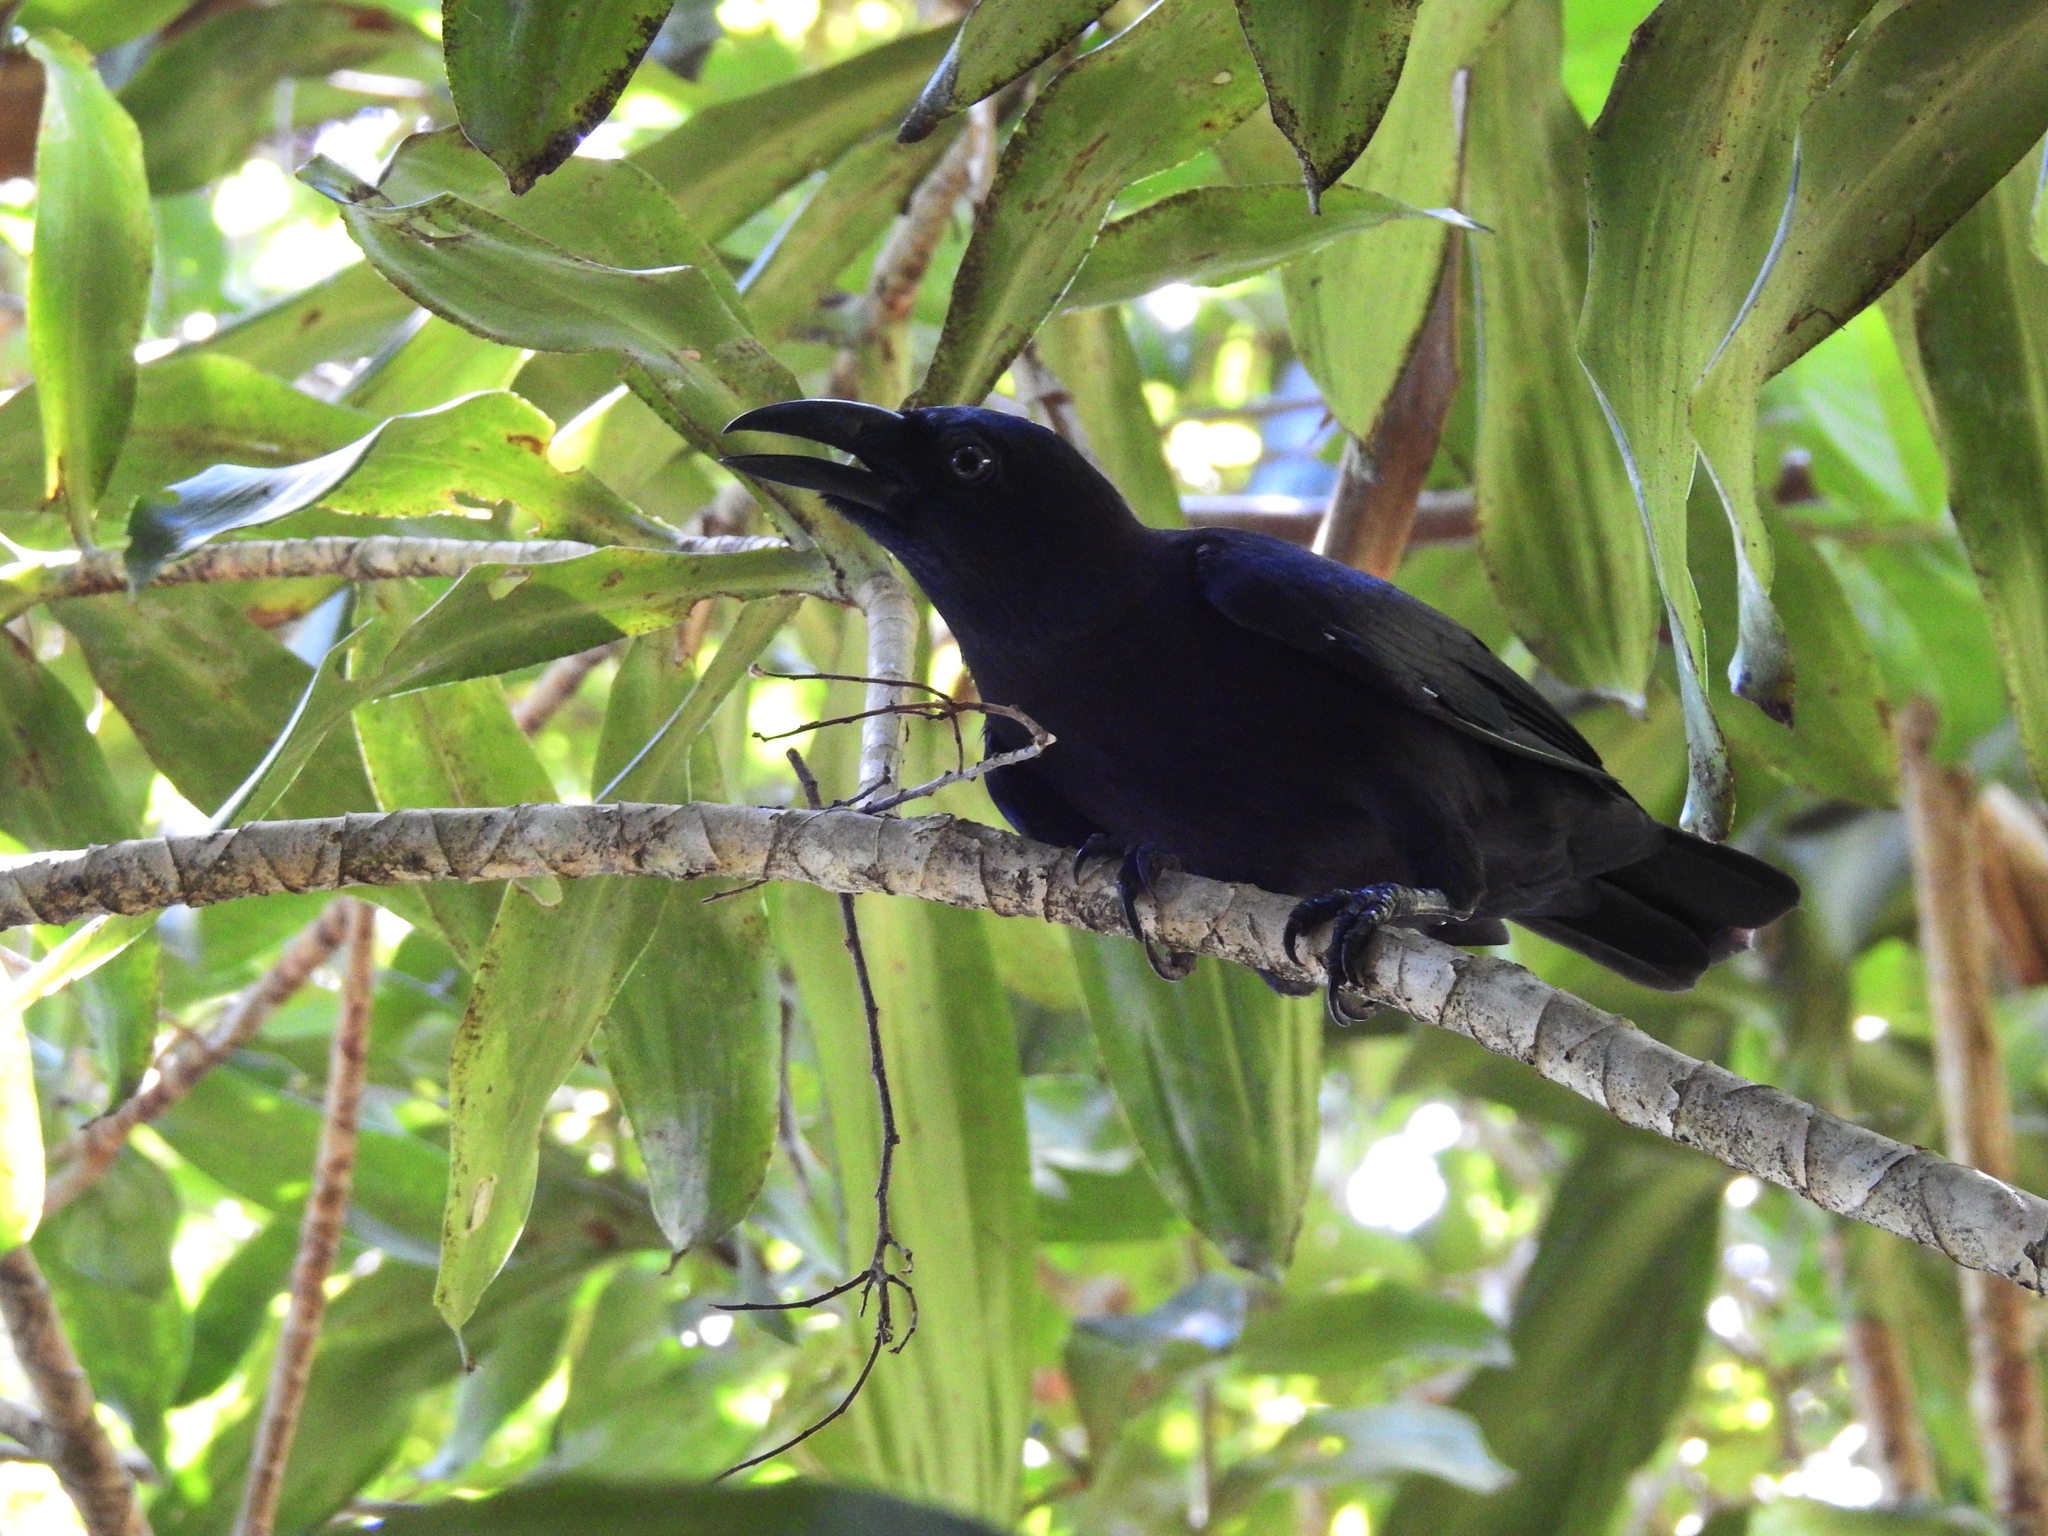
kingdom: Animalia
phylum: Chordata
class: Aves
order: Passeriformes
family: Corvidae
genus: Corvus
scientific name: Corvus unicolor
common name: Banggai crow
